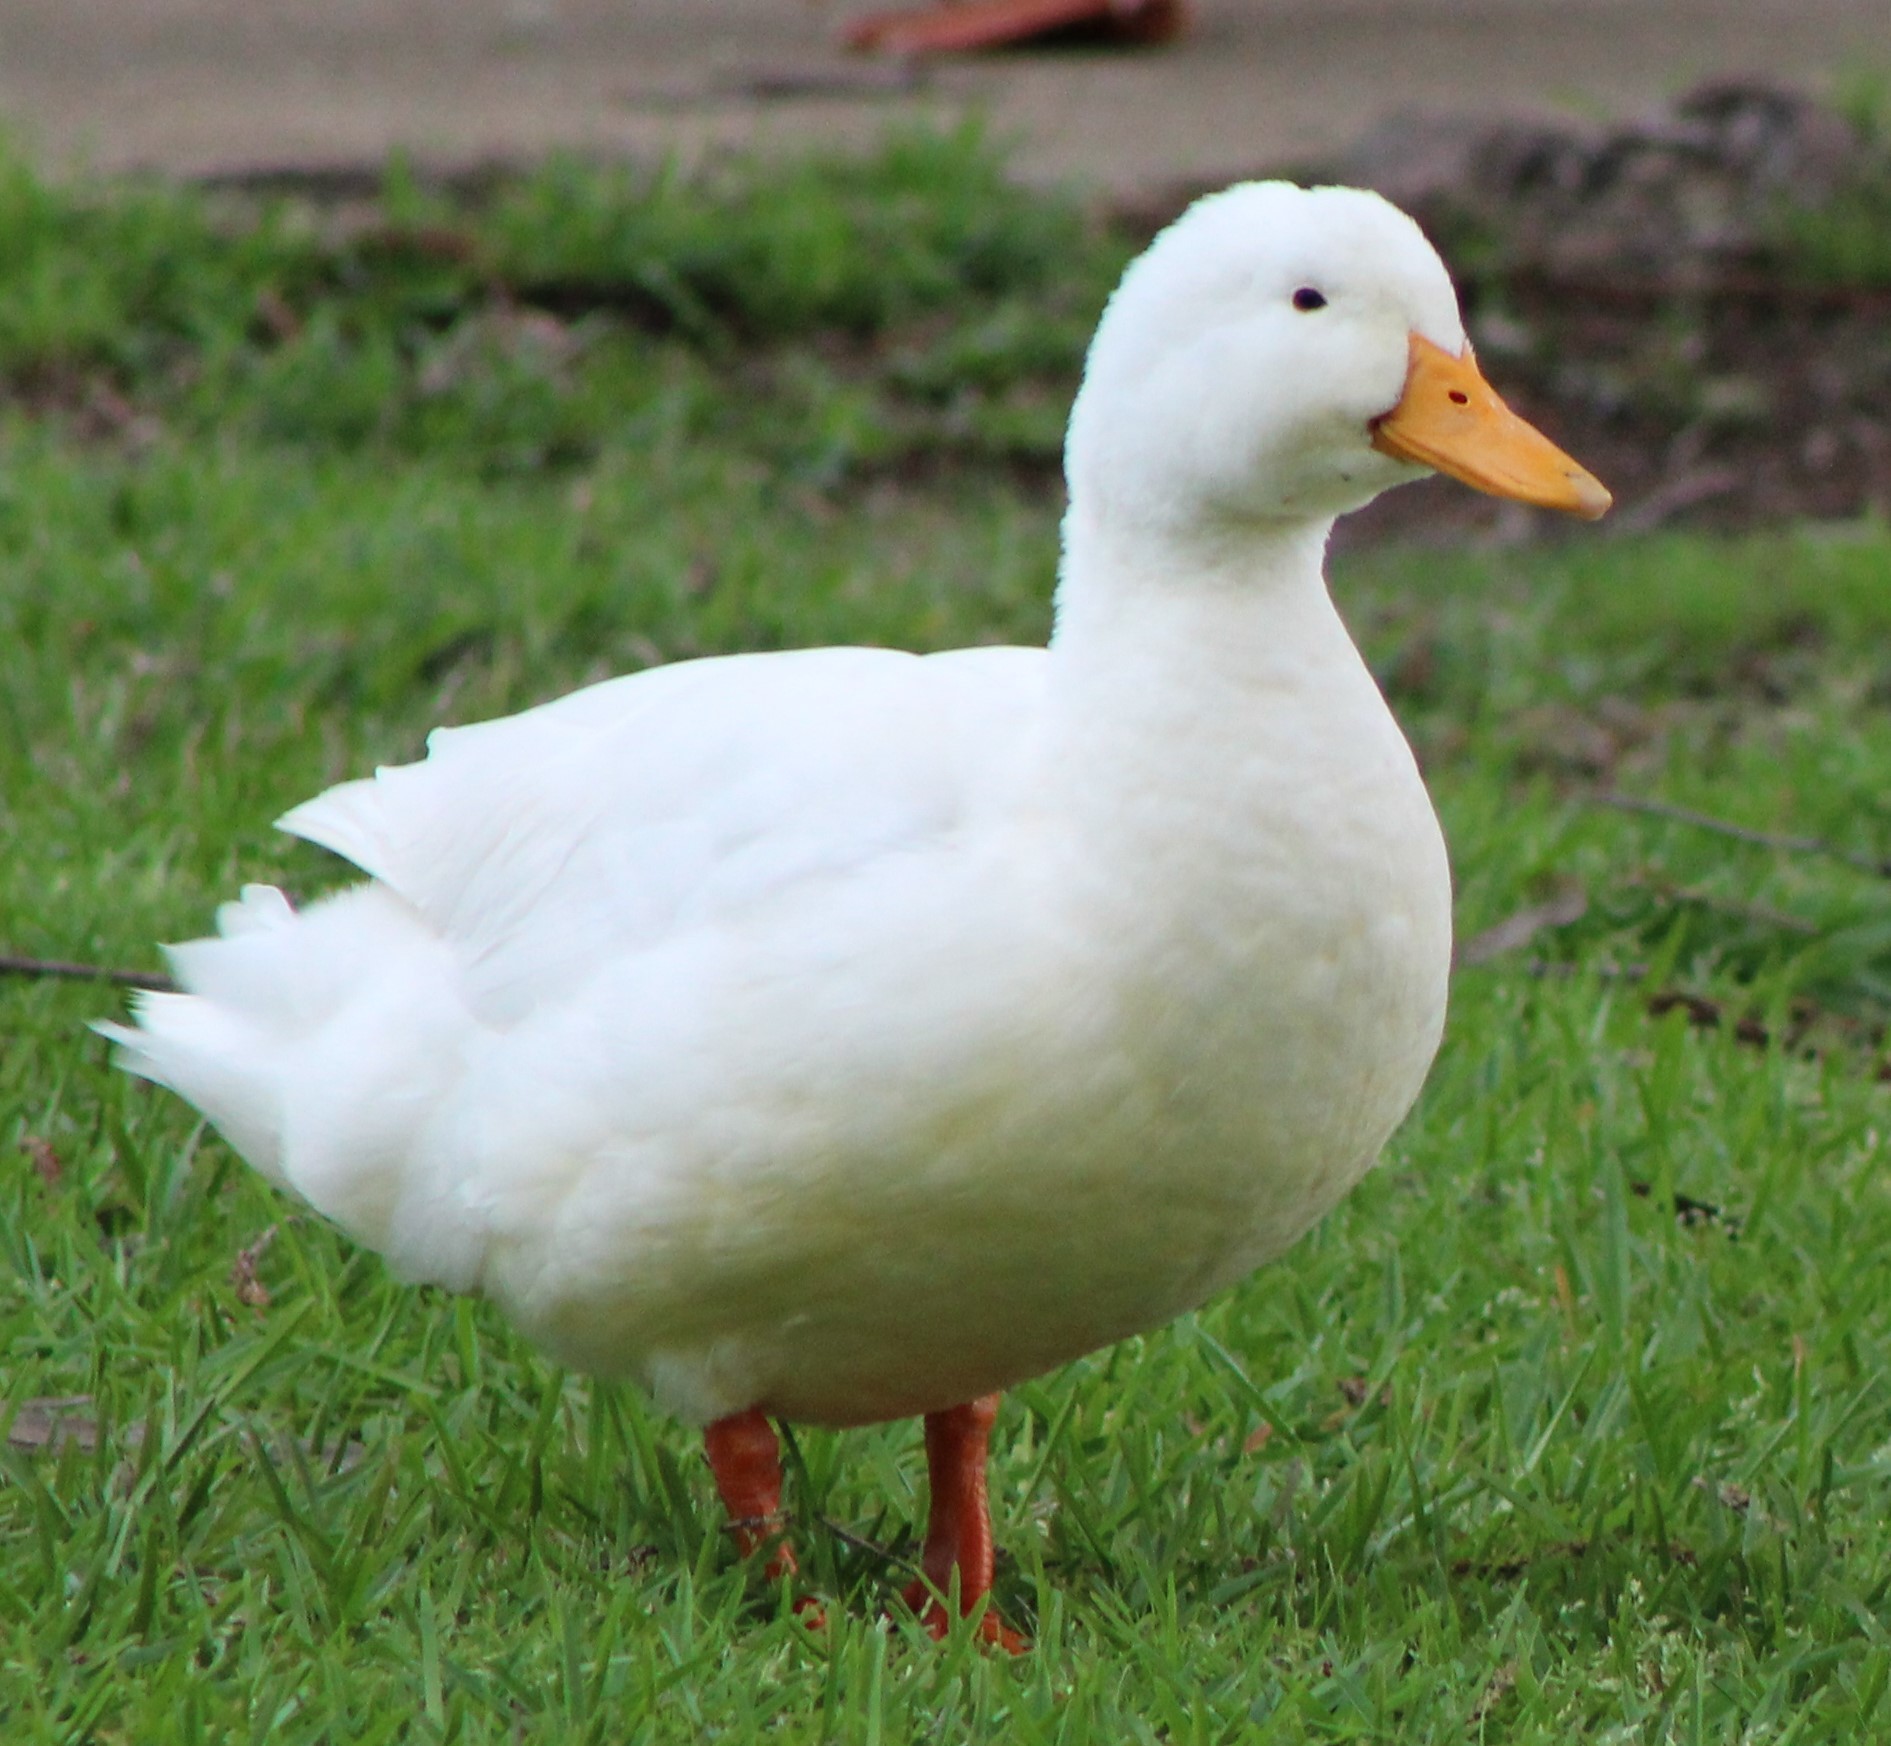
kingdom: Animalia
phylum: Chordata
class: Aves
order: Anseriformes
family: Anatidae
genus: Anas
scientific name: Anas platyrhynchos
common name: Mallard
